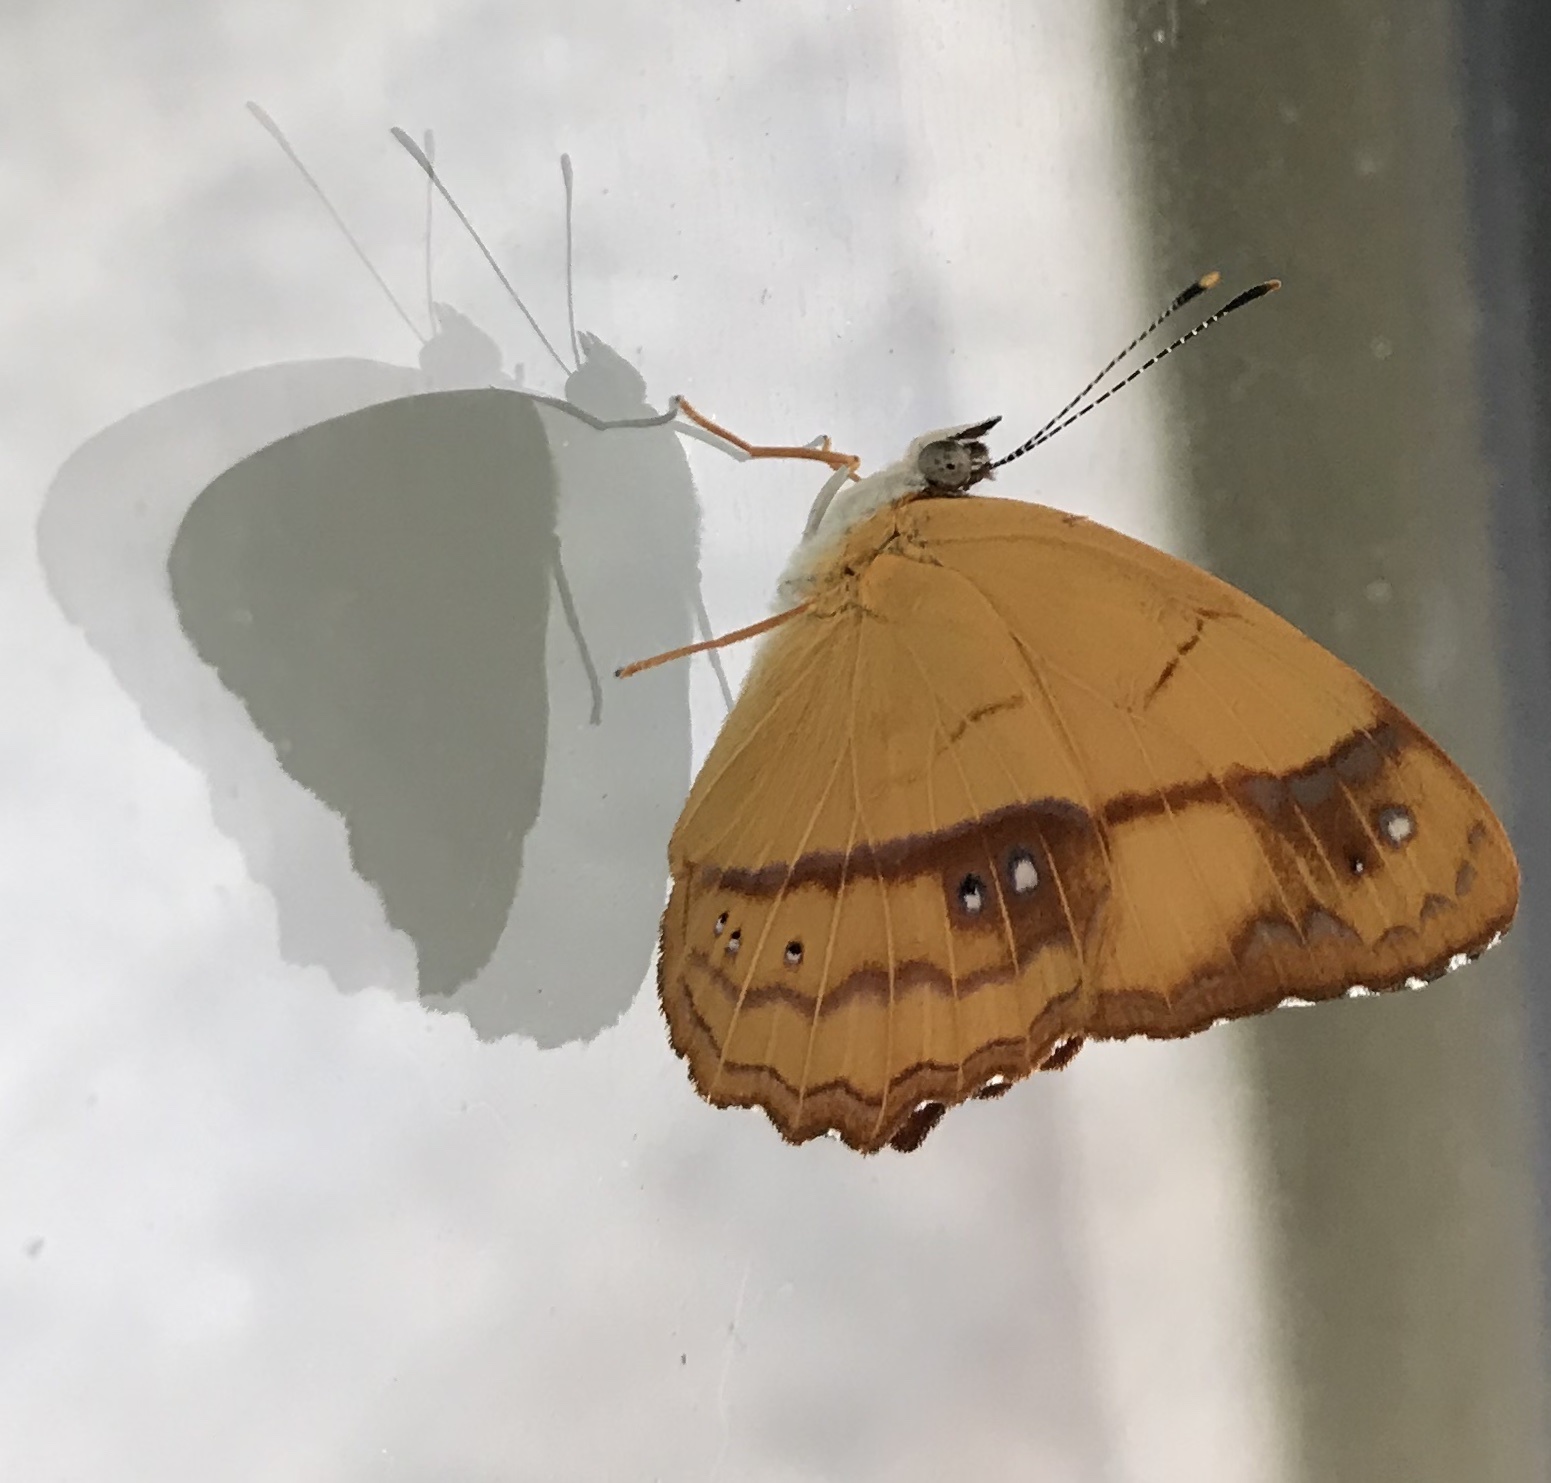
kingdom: Animalia
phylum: Arthropoda
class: Insecta
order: Lepidoptera
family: Nymphalidae
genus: Nica
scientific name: Nica flavilla
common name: Mandarin nica
